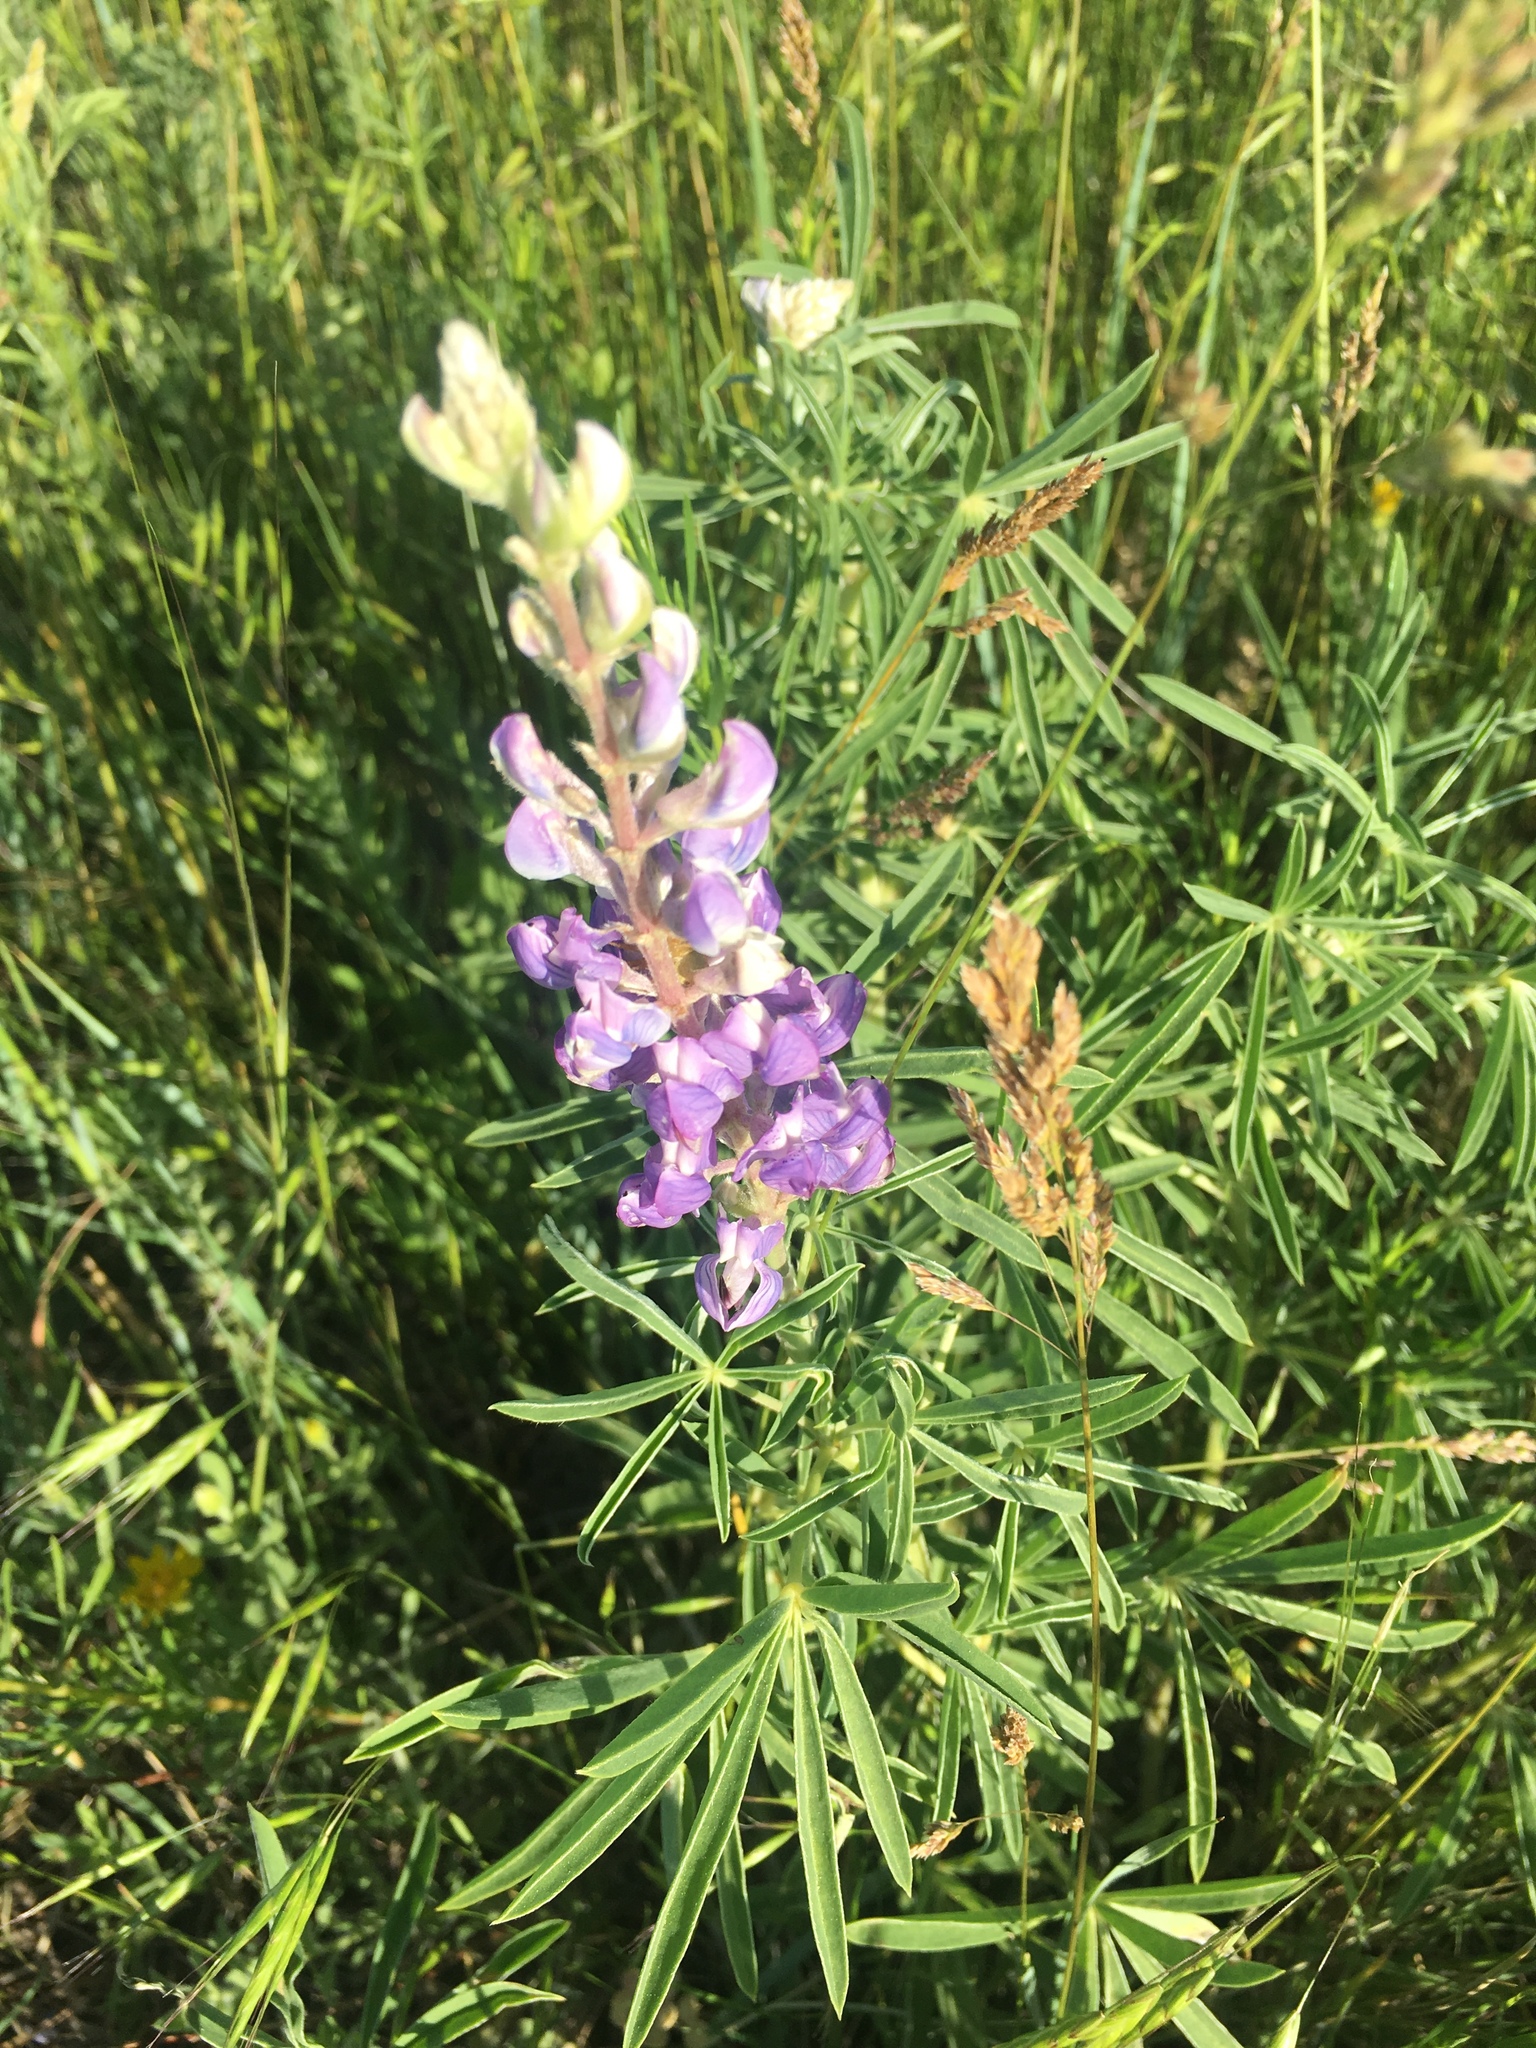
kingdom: Plantae
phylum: Tracheophyta
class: Magnoliopsida
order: Fabales
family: Fabaceae
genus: Lupinus
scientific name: Lupinus argenteus
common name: Silvery lupine
